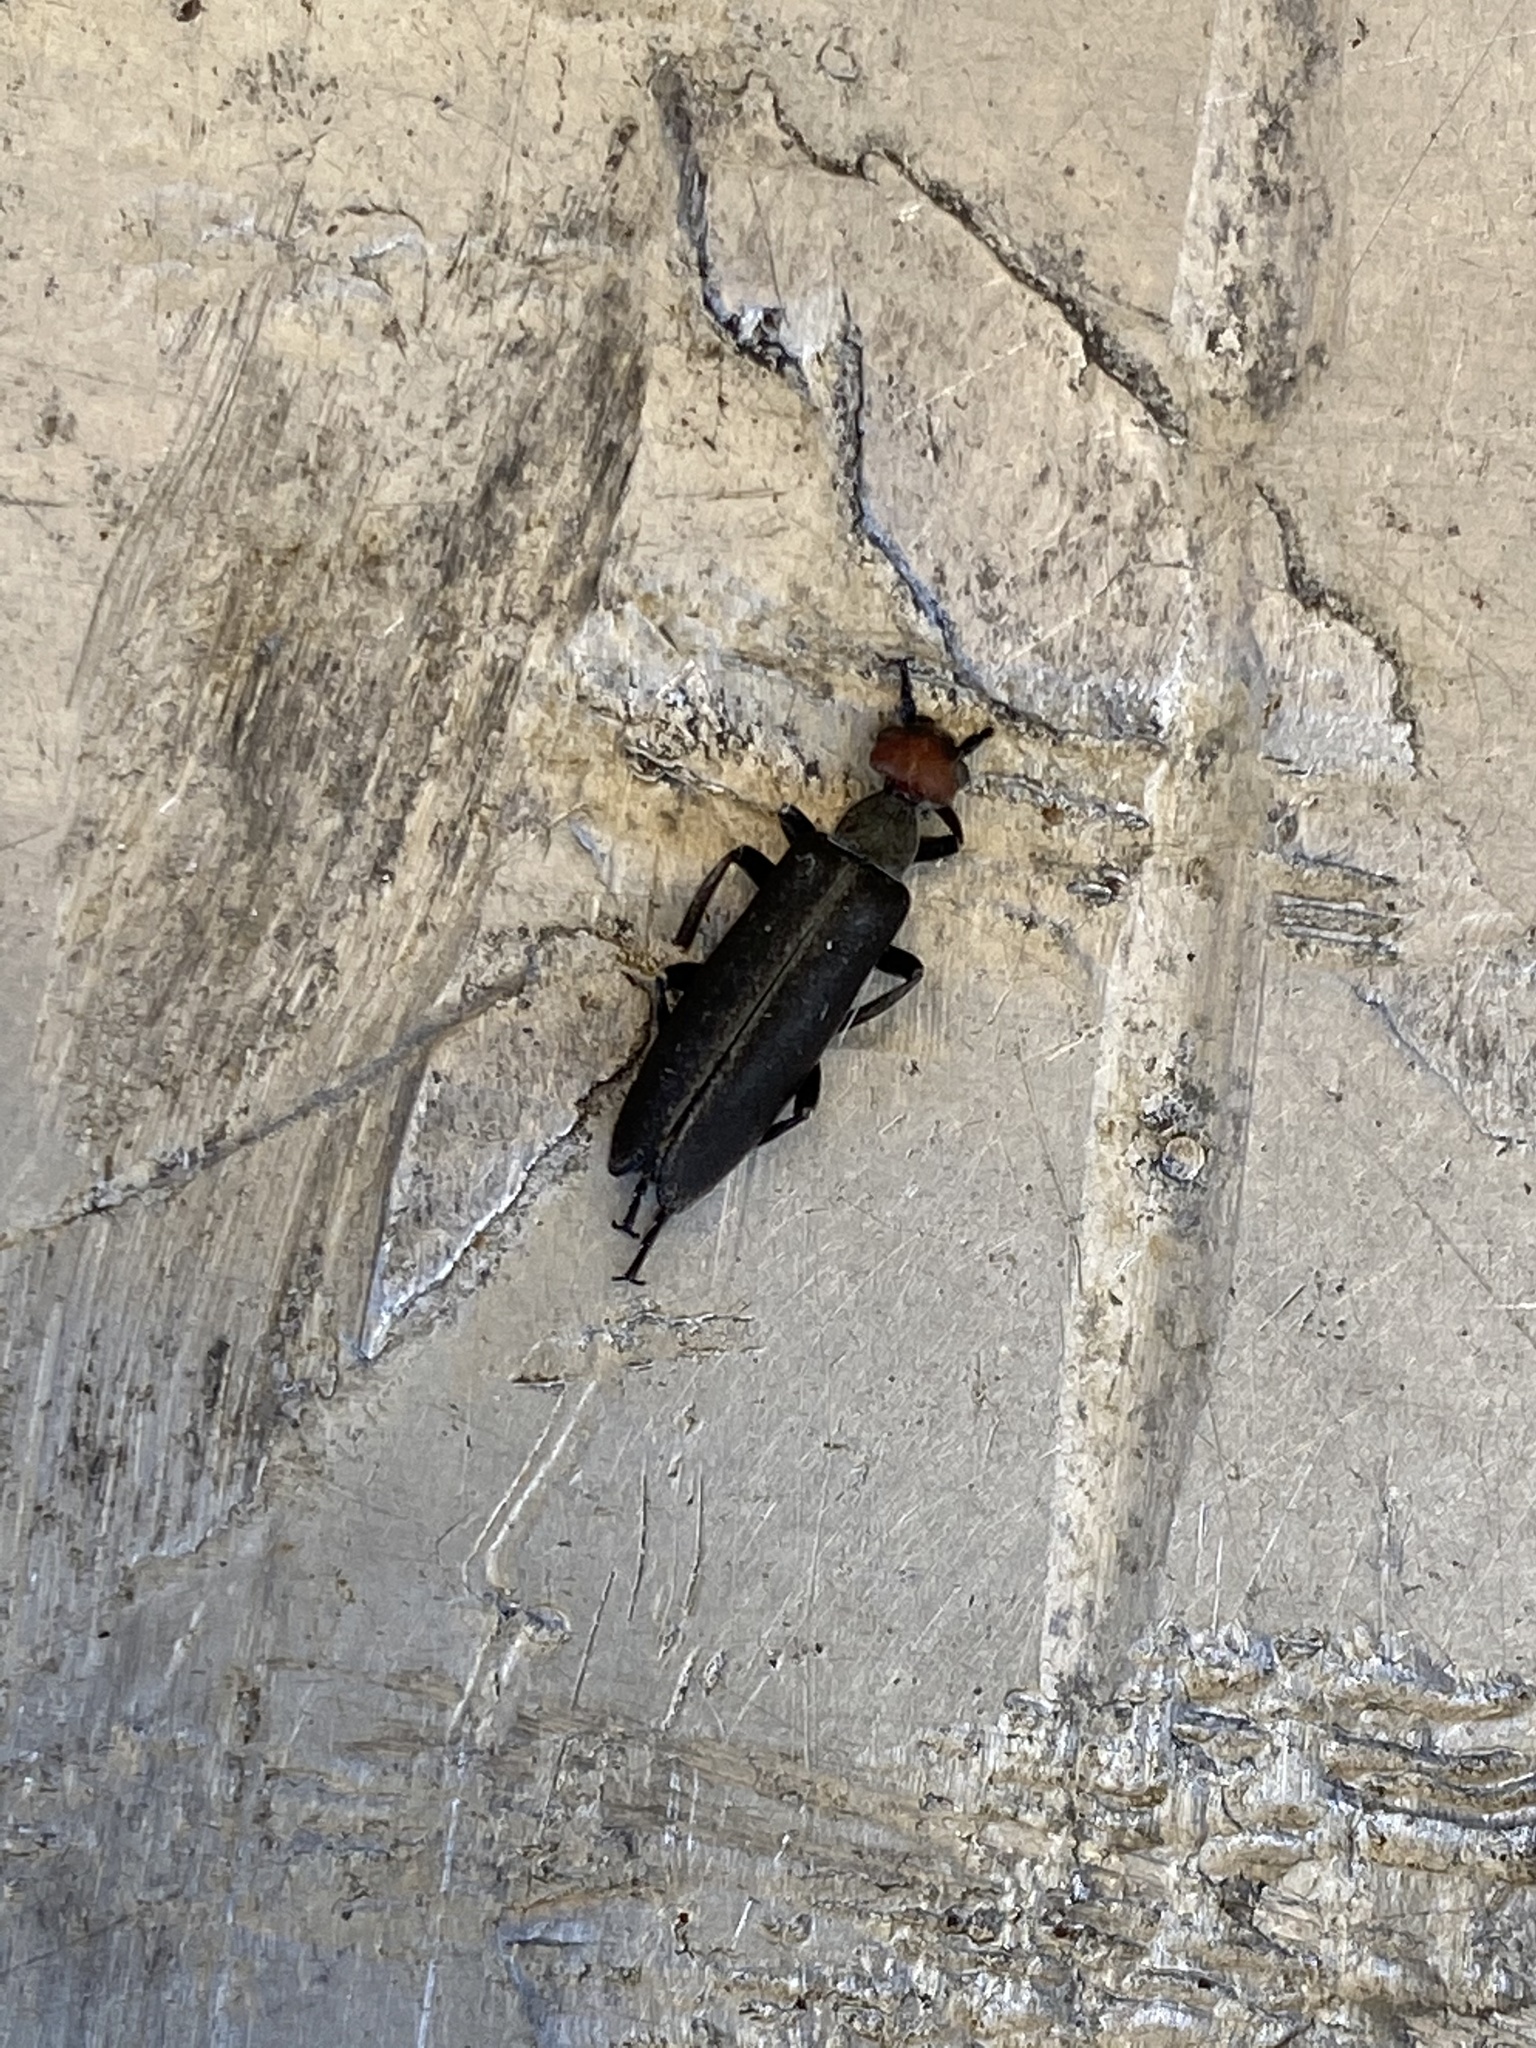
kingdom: Animalia
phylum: Arthropoda
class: Insecta
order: Coleoptera
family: Meloidae
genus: Epicauta
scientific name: Epicauta atrata
